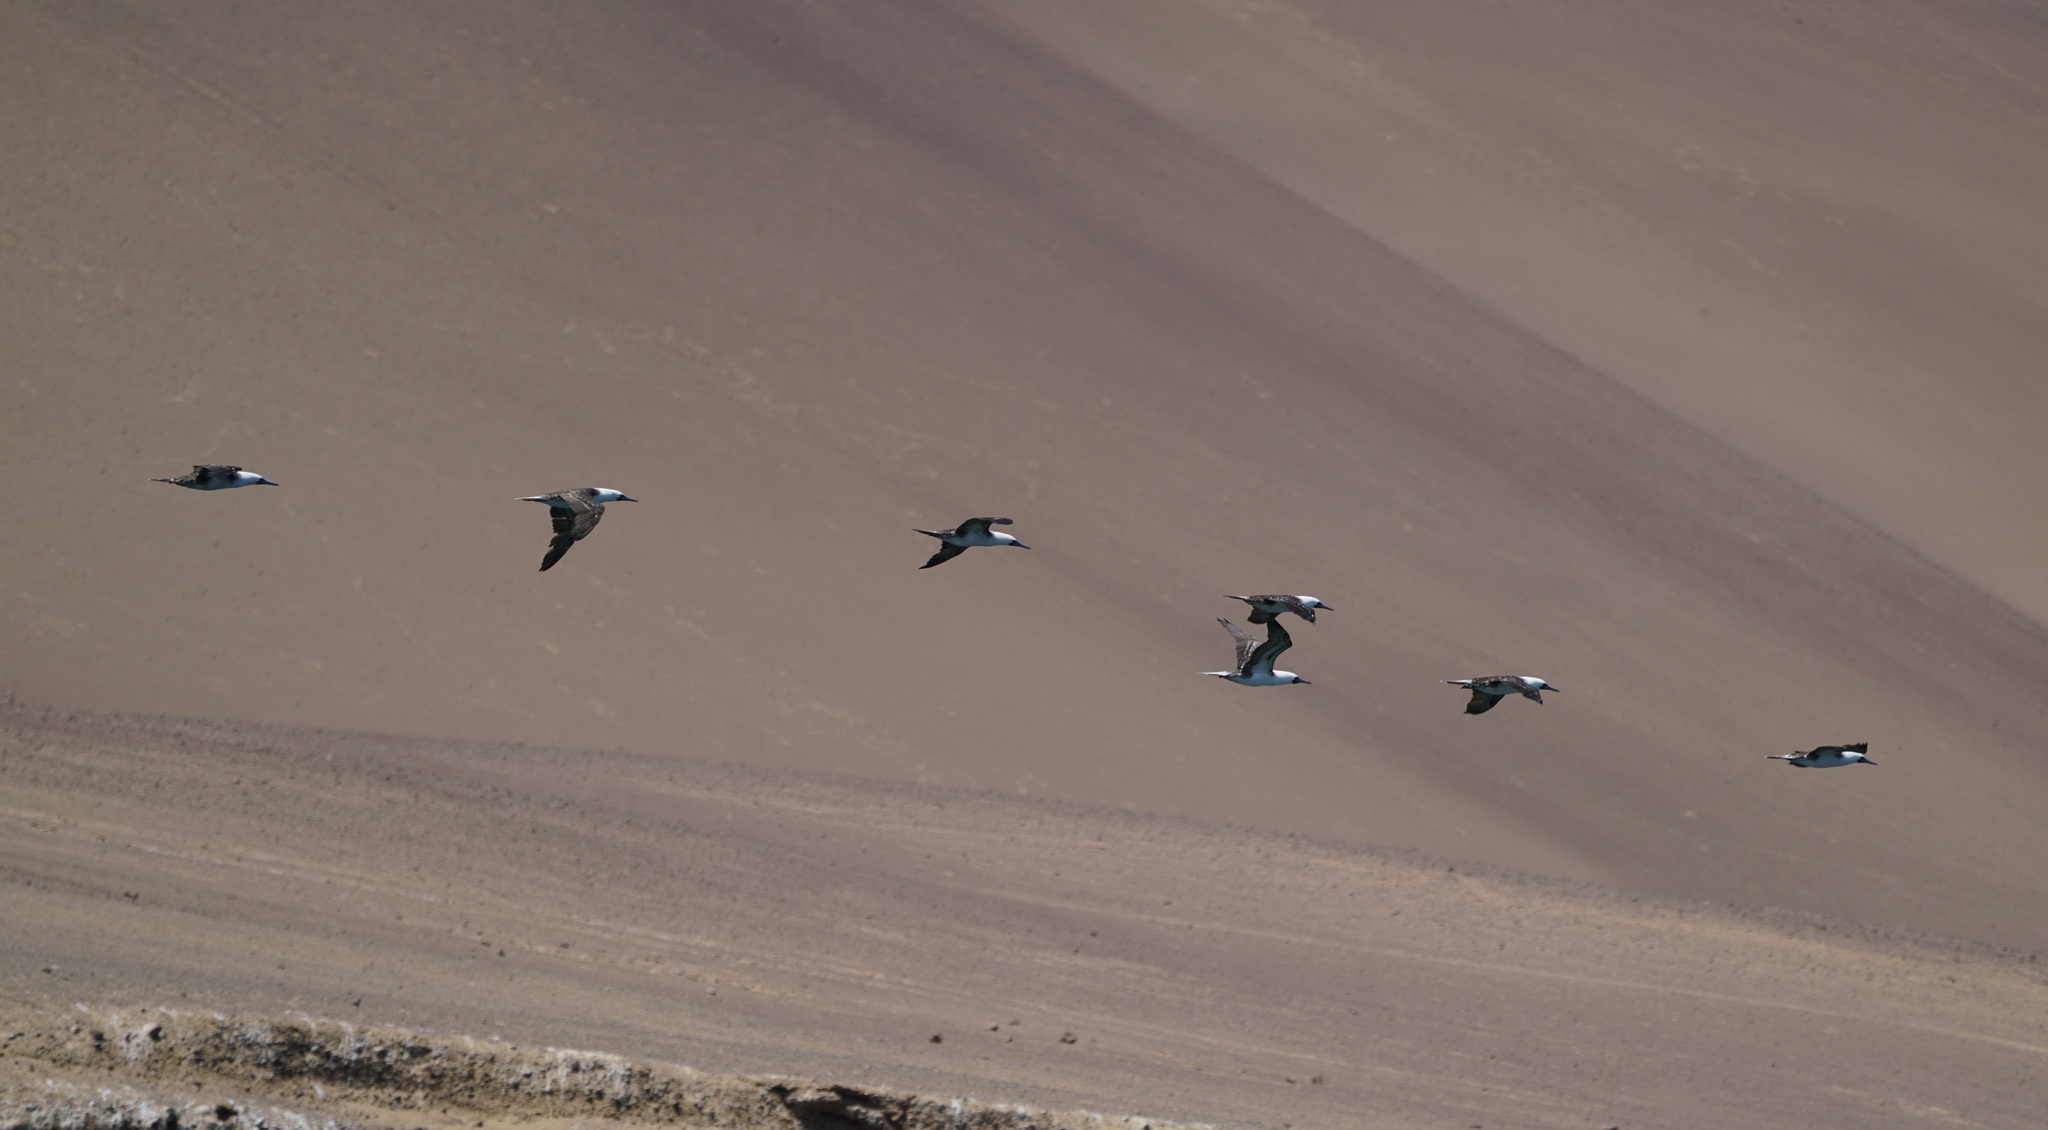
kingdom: Animalia
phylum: Chordata
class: Aves
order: Suliformes
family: Sulidae
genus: Sula
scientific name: Sula variegata
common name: Peruvian booby
